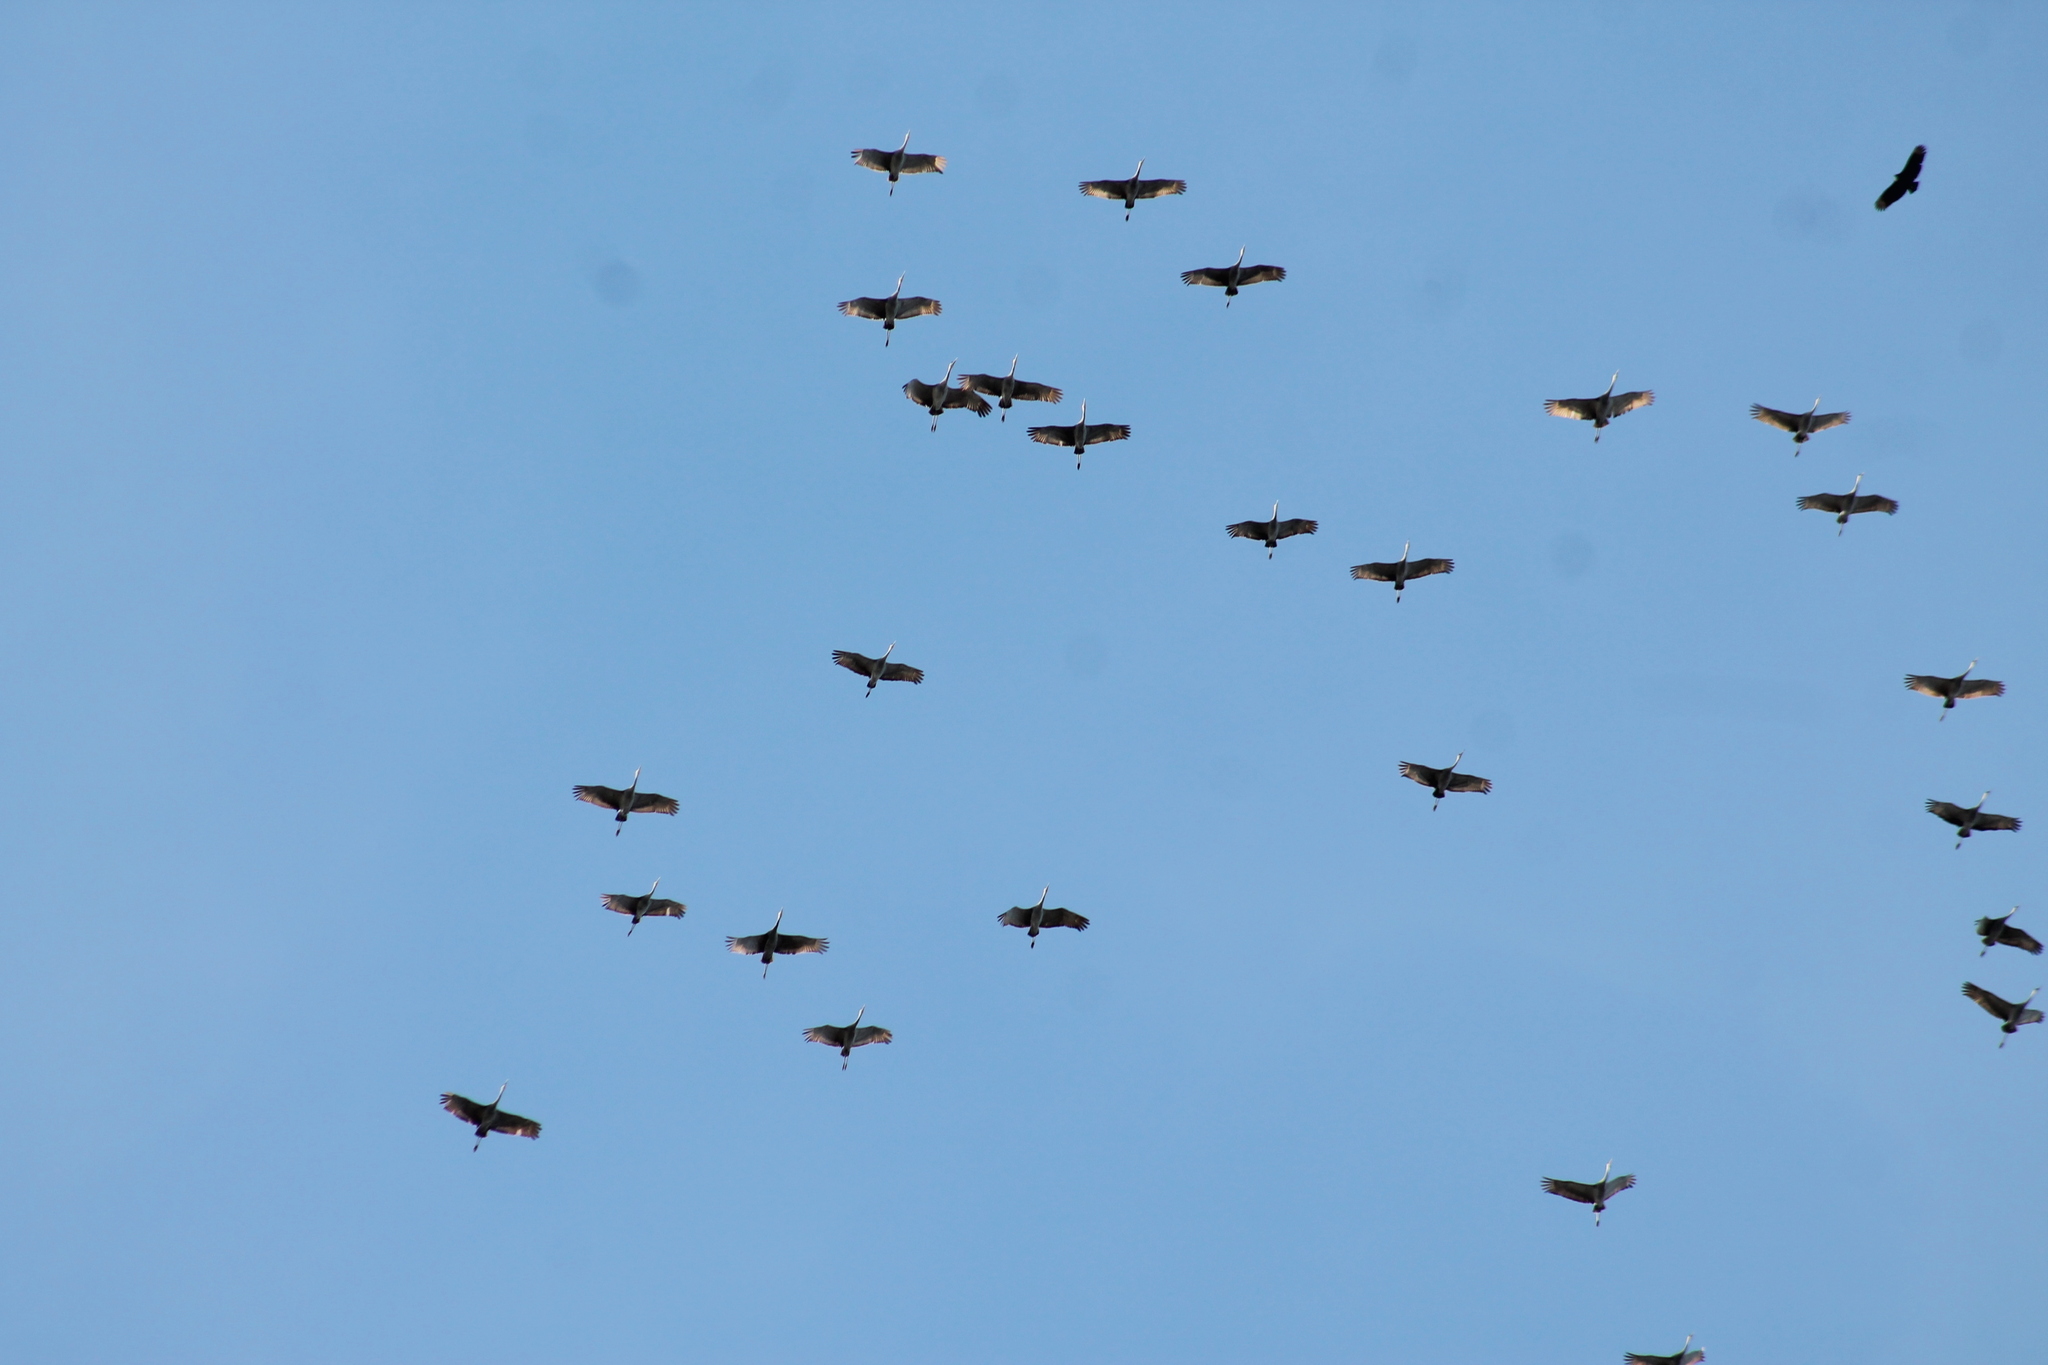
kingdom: Animalia
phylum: Chordata
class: Aves
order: Gruiformes
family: Gruidae
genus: Grus
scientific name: Grus canadensis
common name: Sandhill crane
